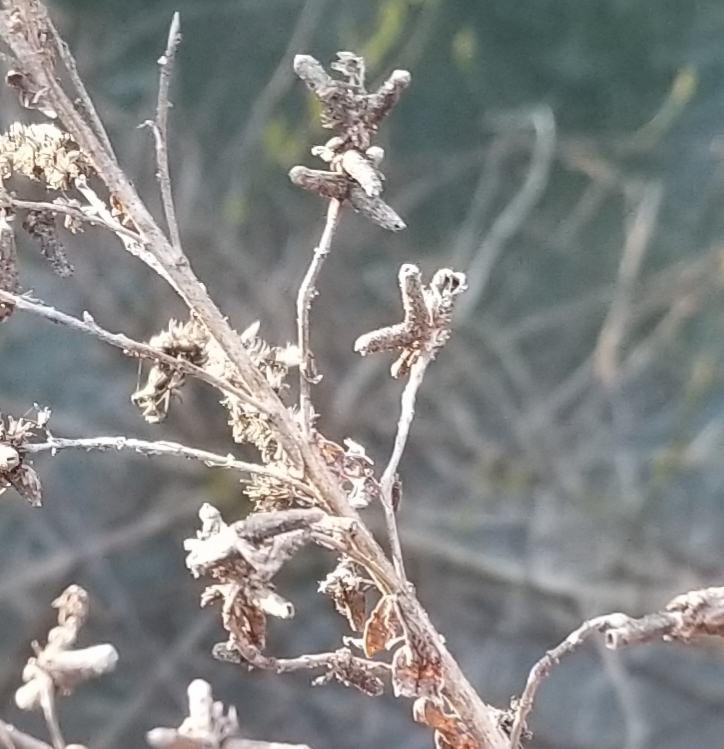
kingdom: Animalia
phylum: Arthropoda
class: Insecta
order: Diptera
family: Cecidomyiidae
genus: Rhopalomyia
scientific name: Rhopalomyia anthophila
